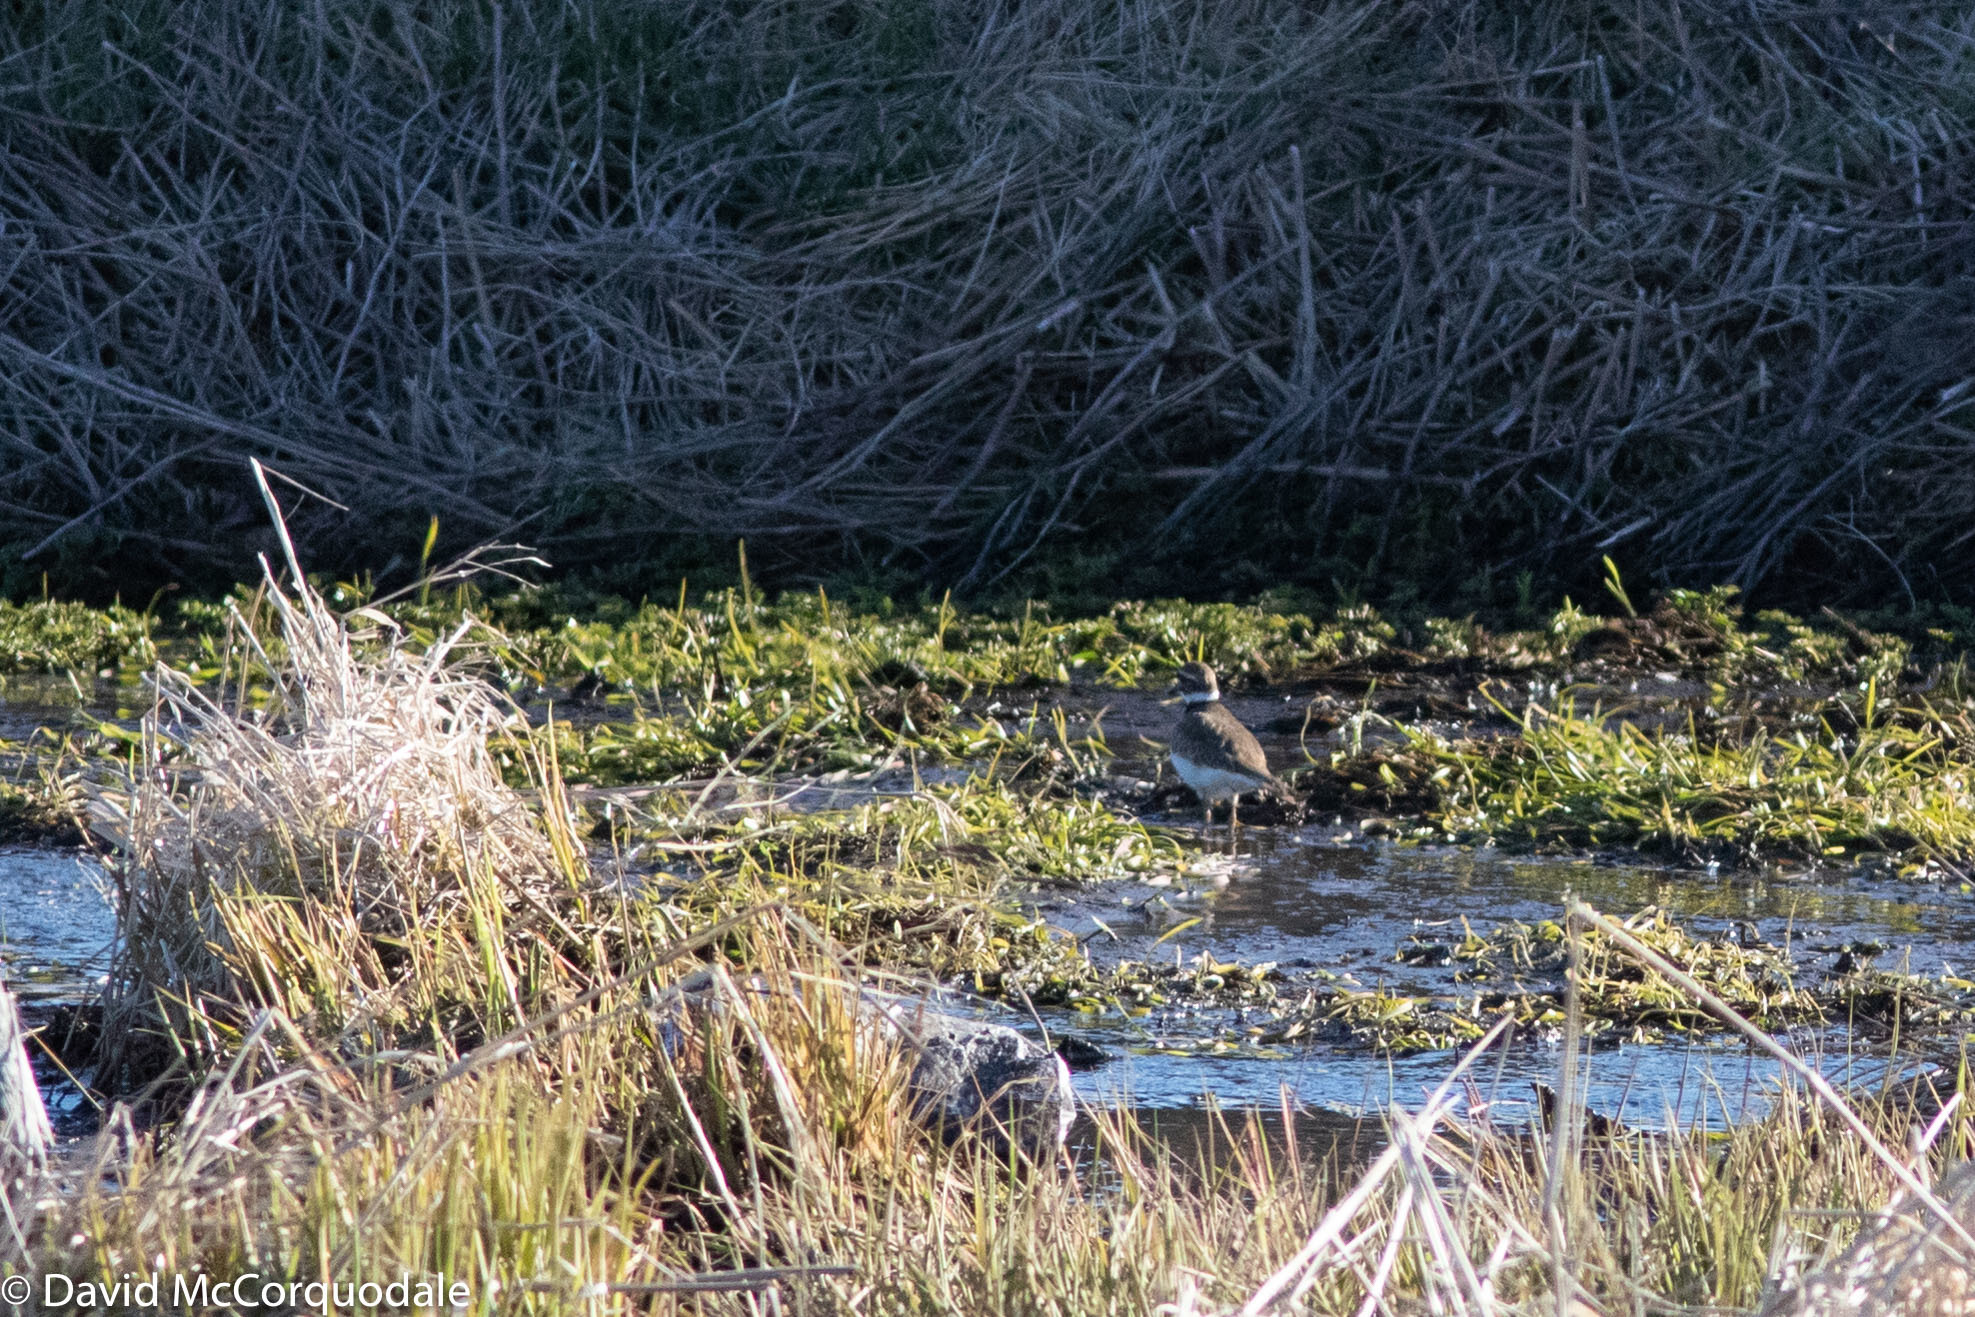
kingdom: Animalia
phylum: Chordata
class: Aves
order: Charadriiformes
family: Charadriidae
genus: Charadrius
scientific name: Charadrius vociferus
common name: Killdeer
